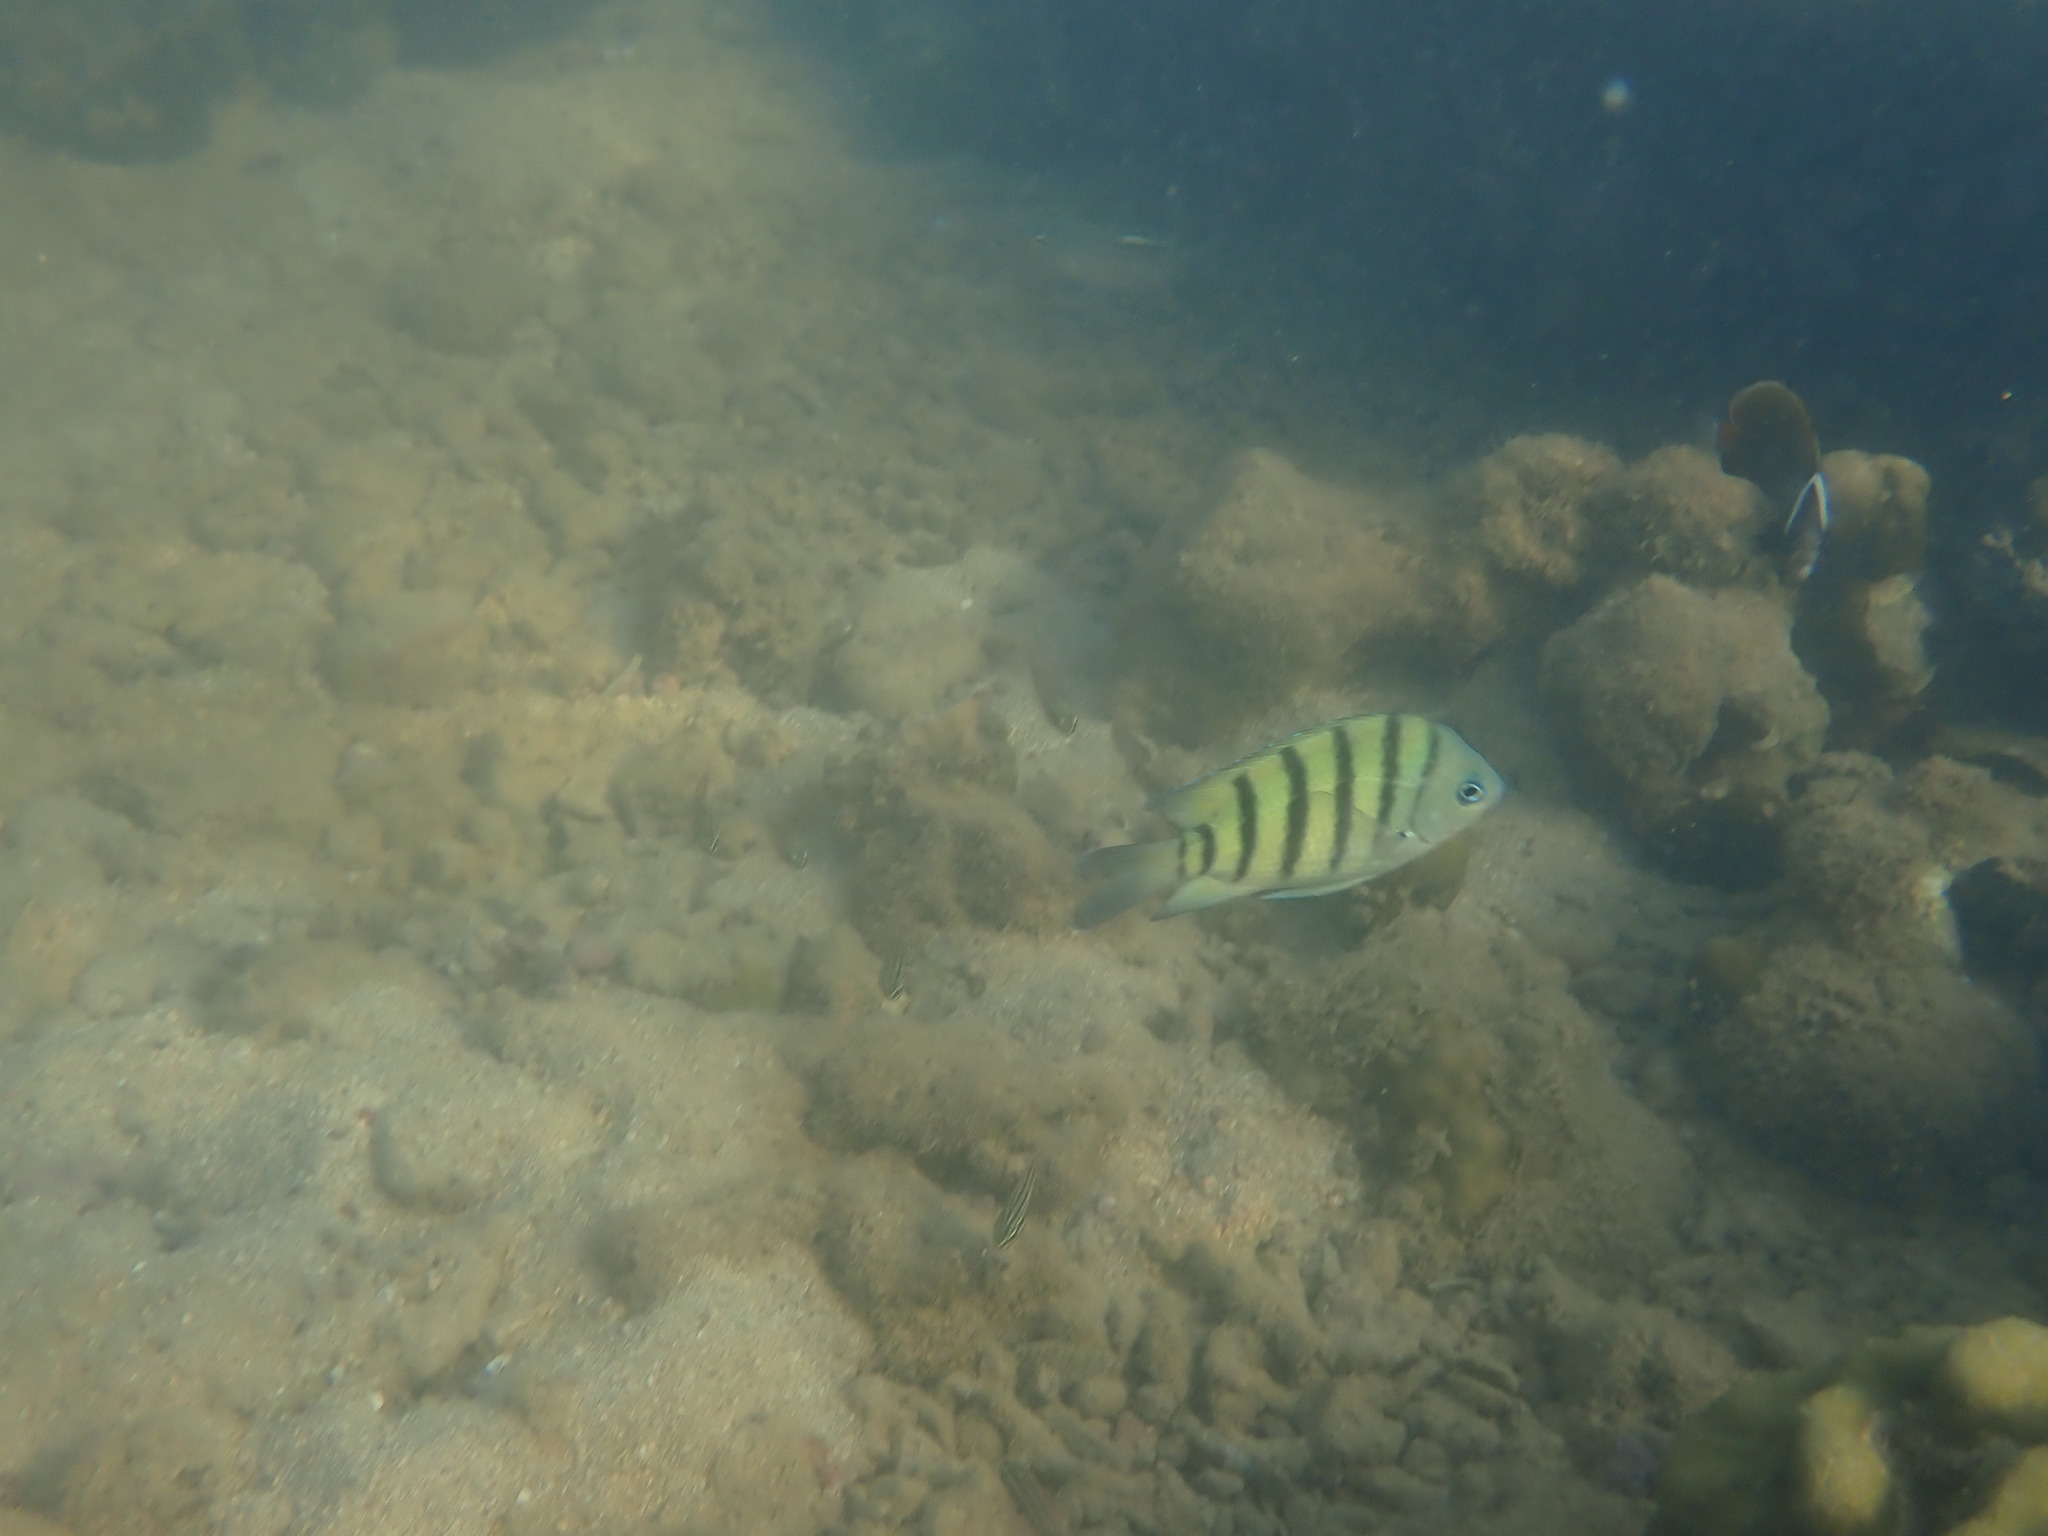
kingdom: Animalia
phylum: Chordata
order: Perciformes
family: Pomacentridae
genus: Abudefduf
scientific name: Abudefduf bengalensis
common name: Bengal sergeant
